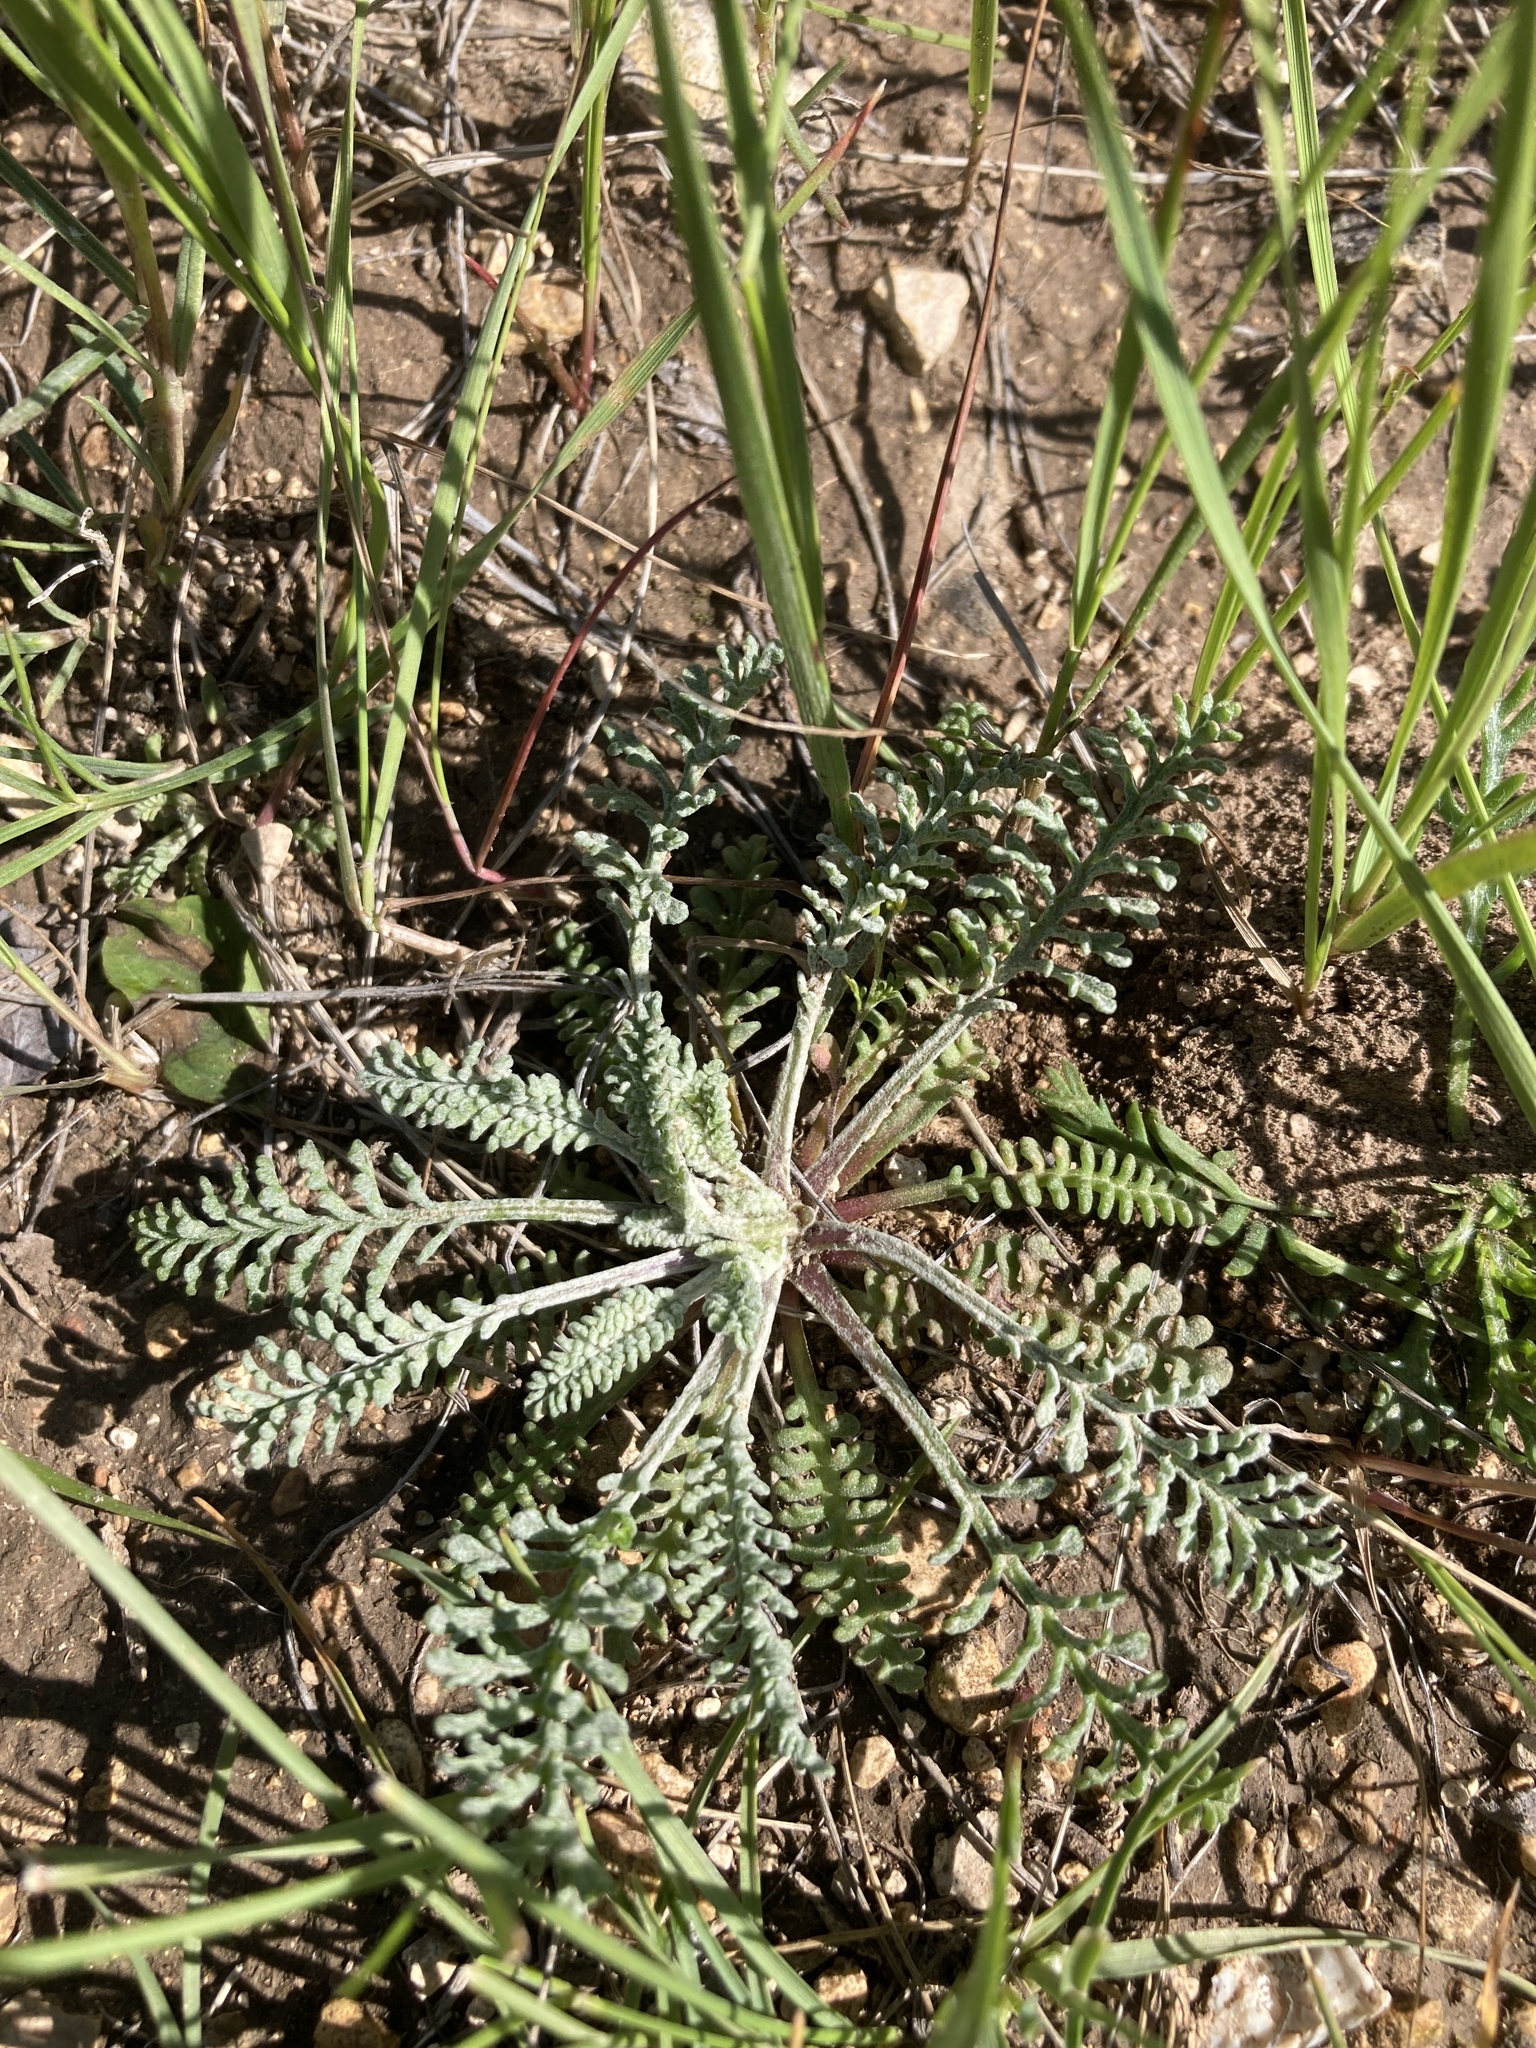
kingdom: Plantae
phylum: Tracheophyta
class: Magnoliopsida
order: Asterales
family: Asteraceae
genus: Chaenactis
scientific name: Chaenactis douglasii
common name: Hoary pincushion
